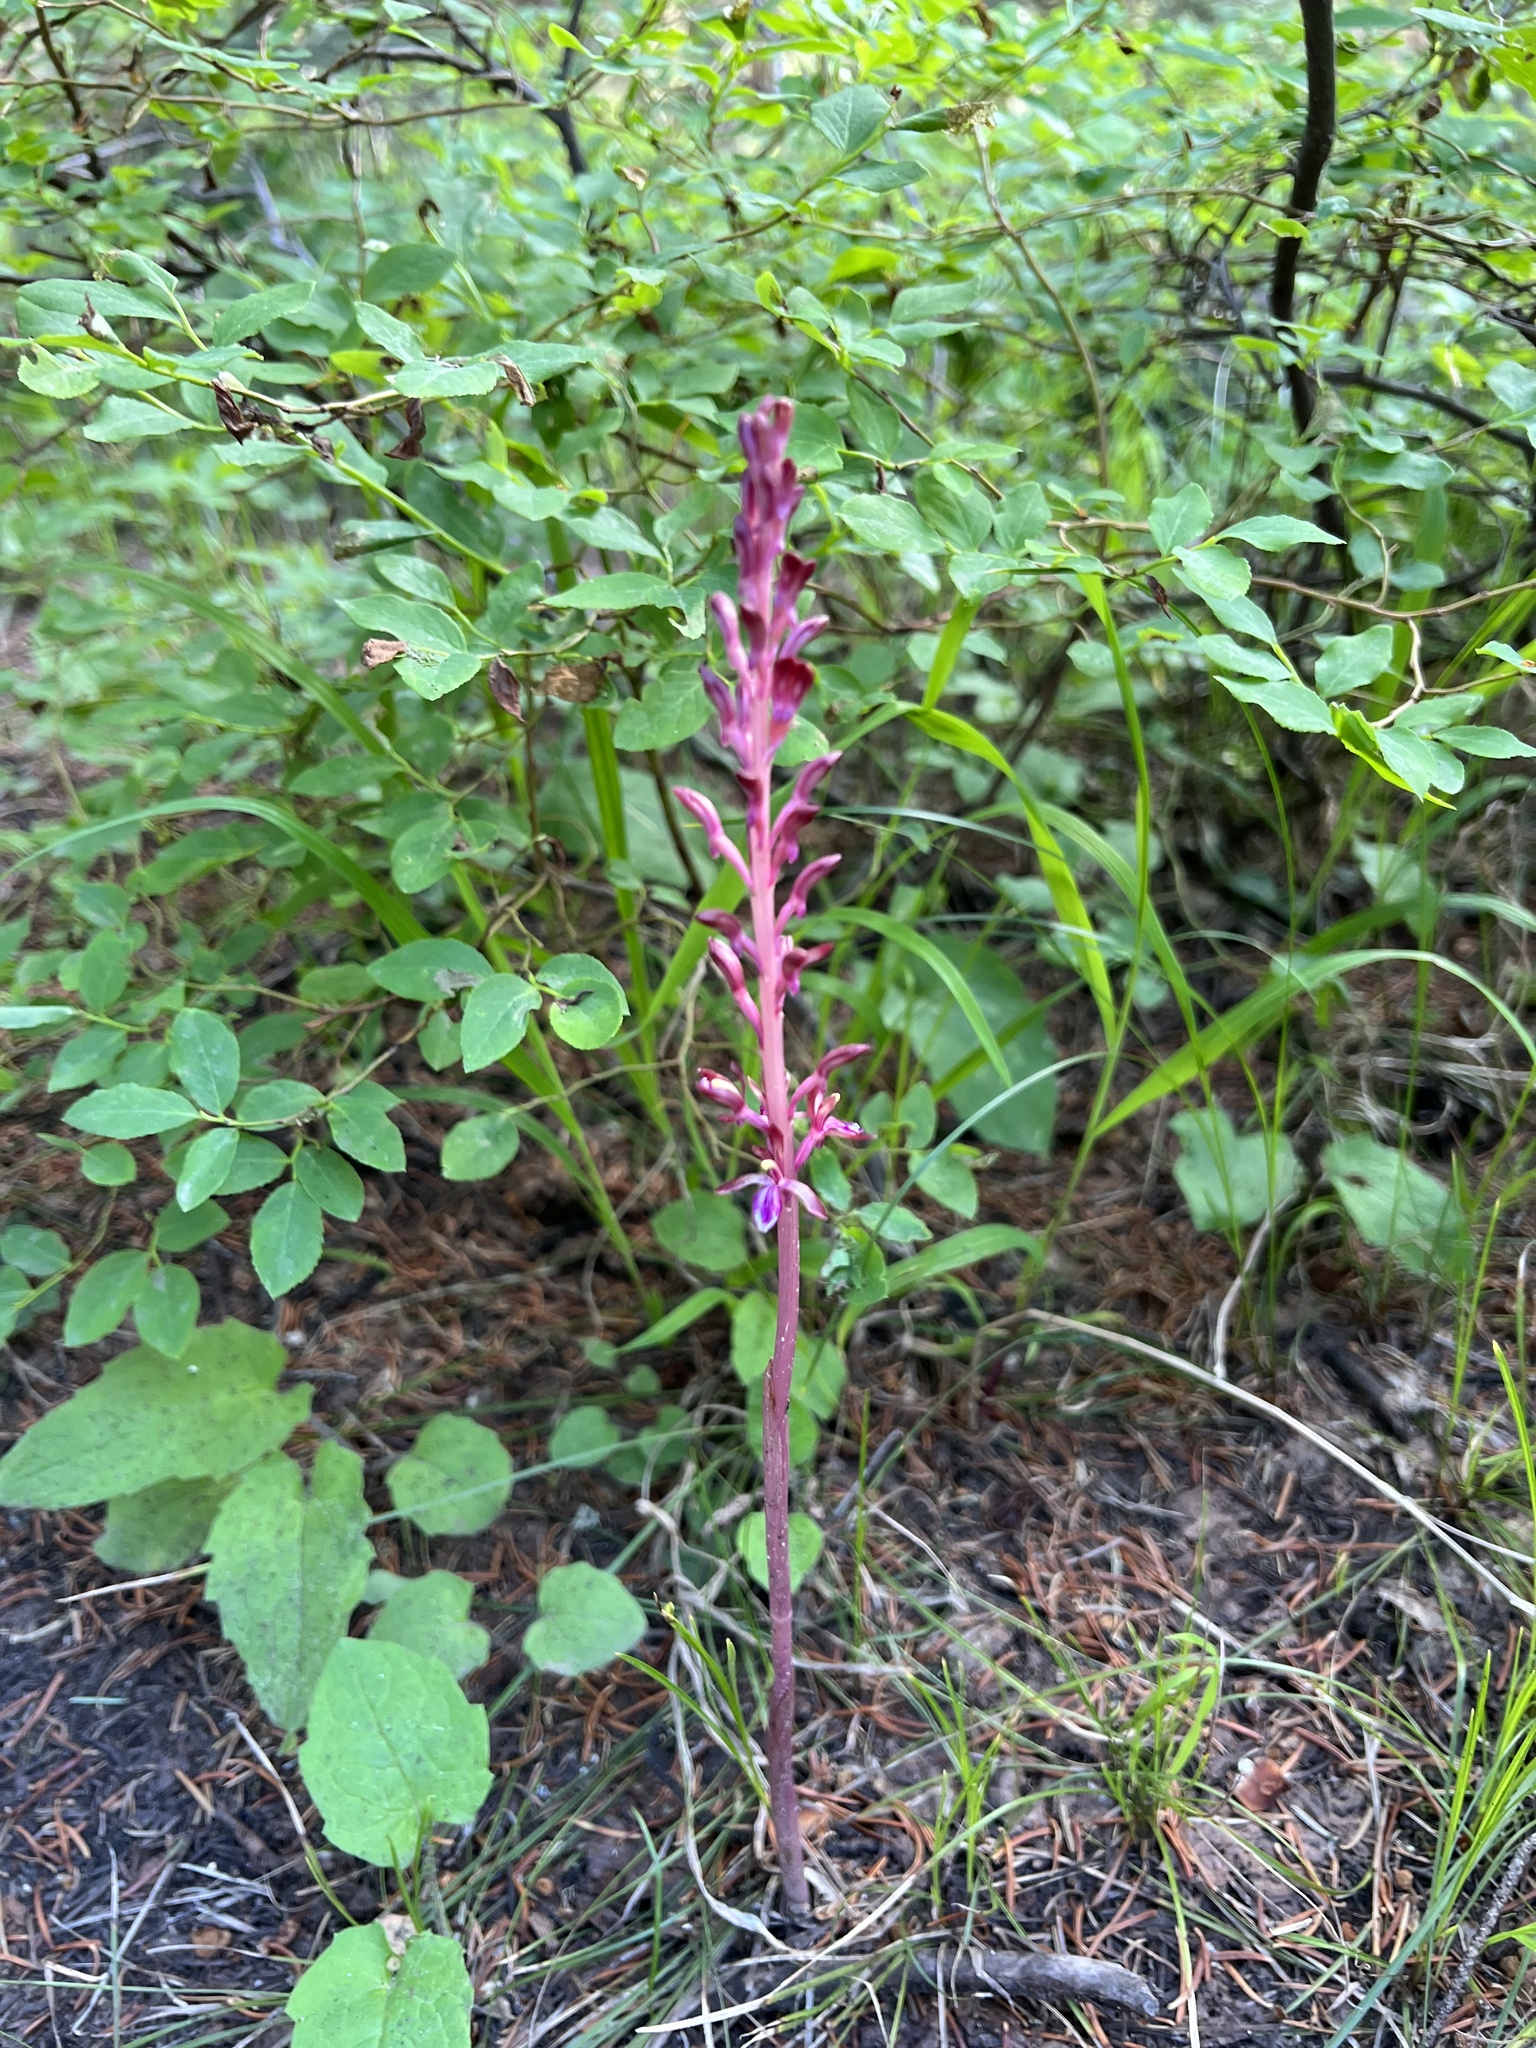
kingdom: Plantae
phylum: Tracheophyta
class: Liliopsida
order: Asparagales
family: Orchidaceae
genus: Corallorhiza
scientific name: Corallorhiza mertensiana
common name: Pacific coralroot
